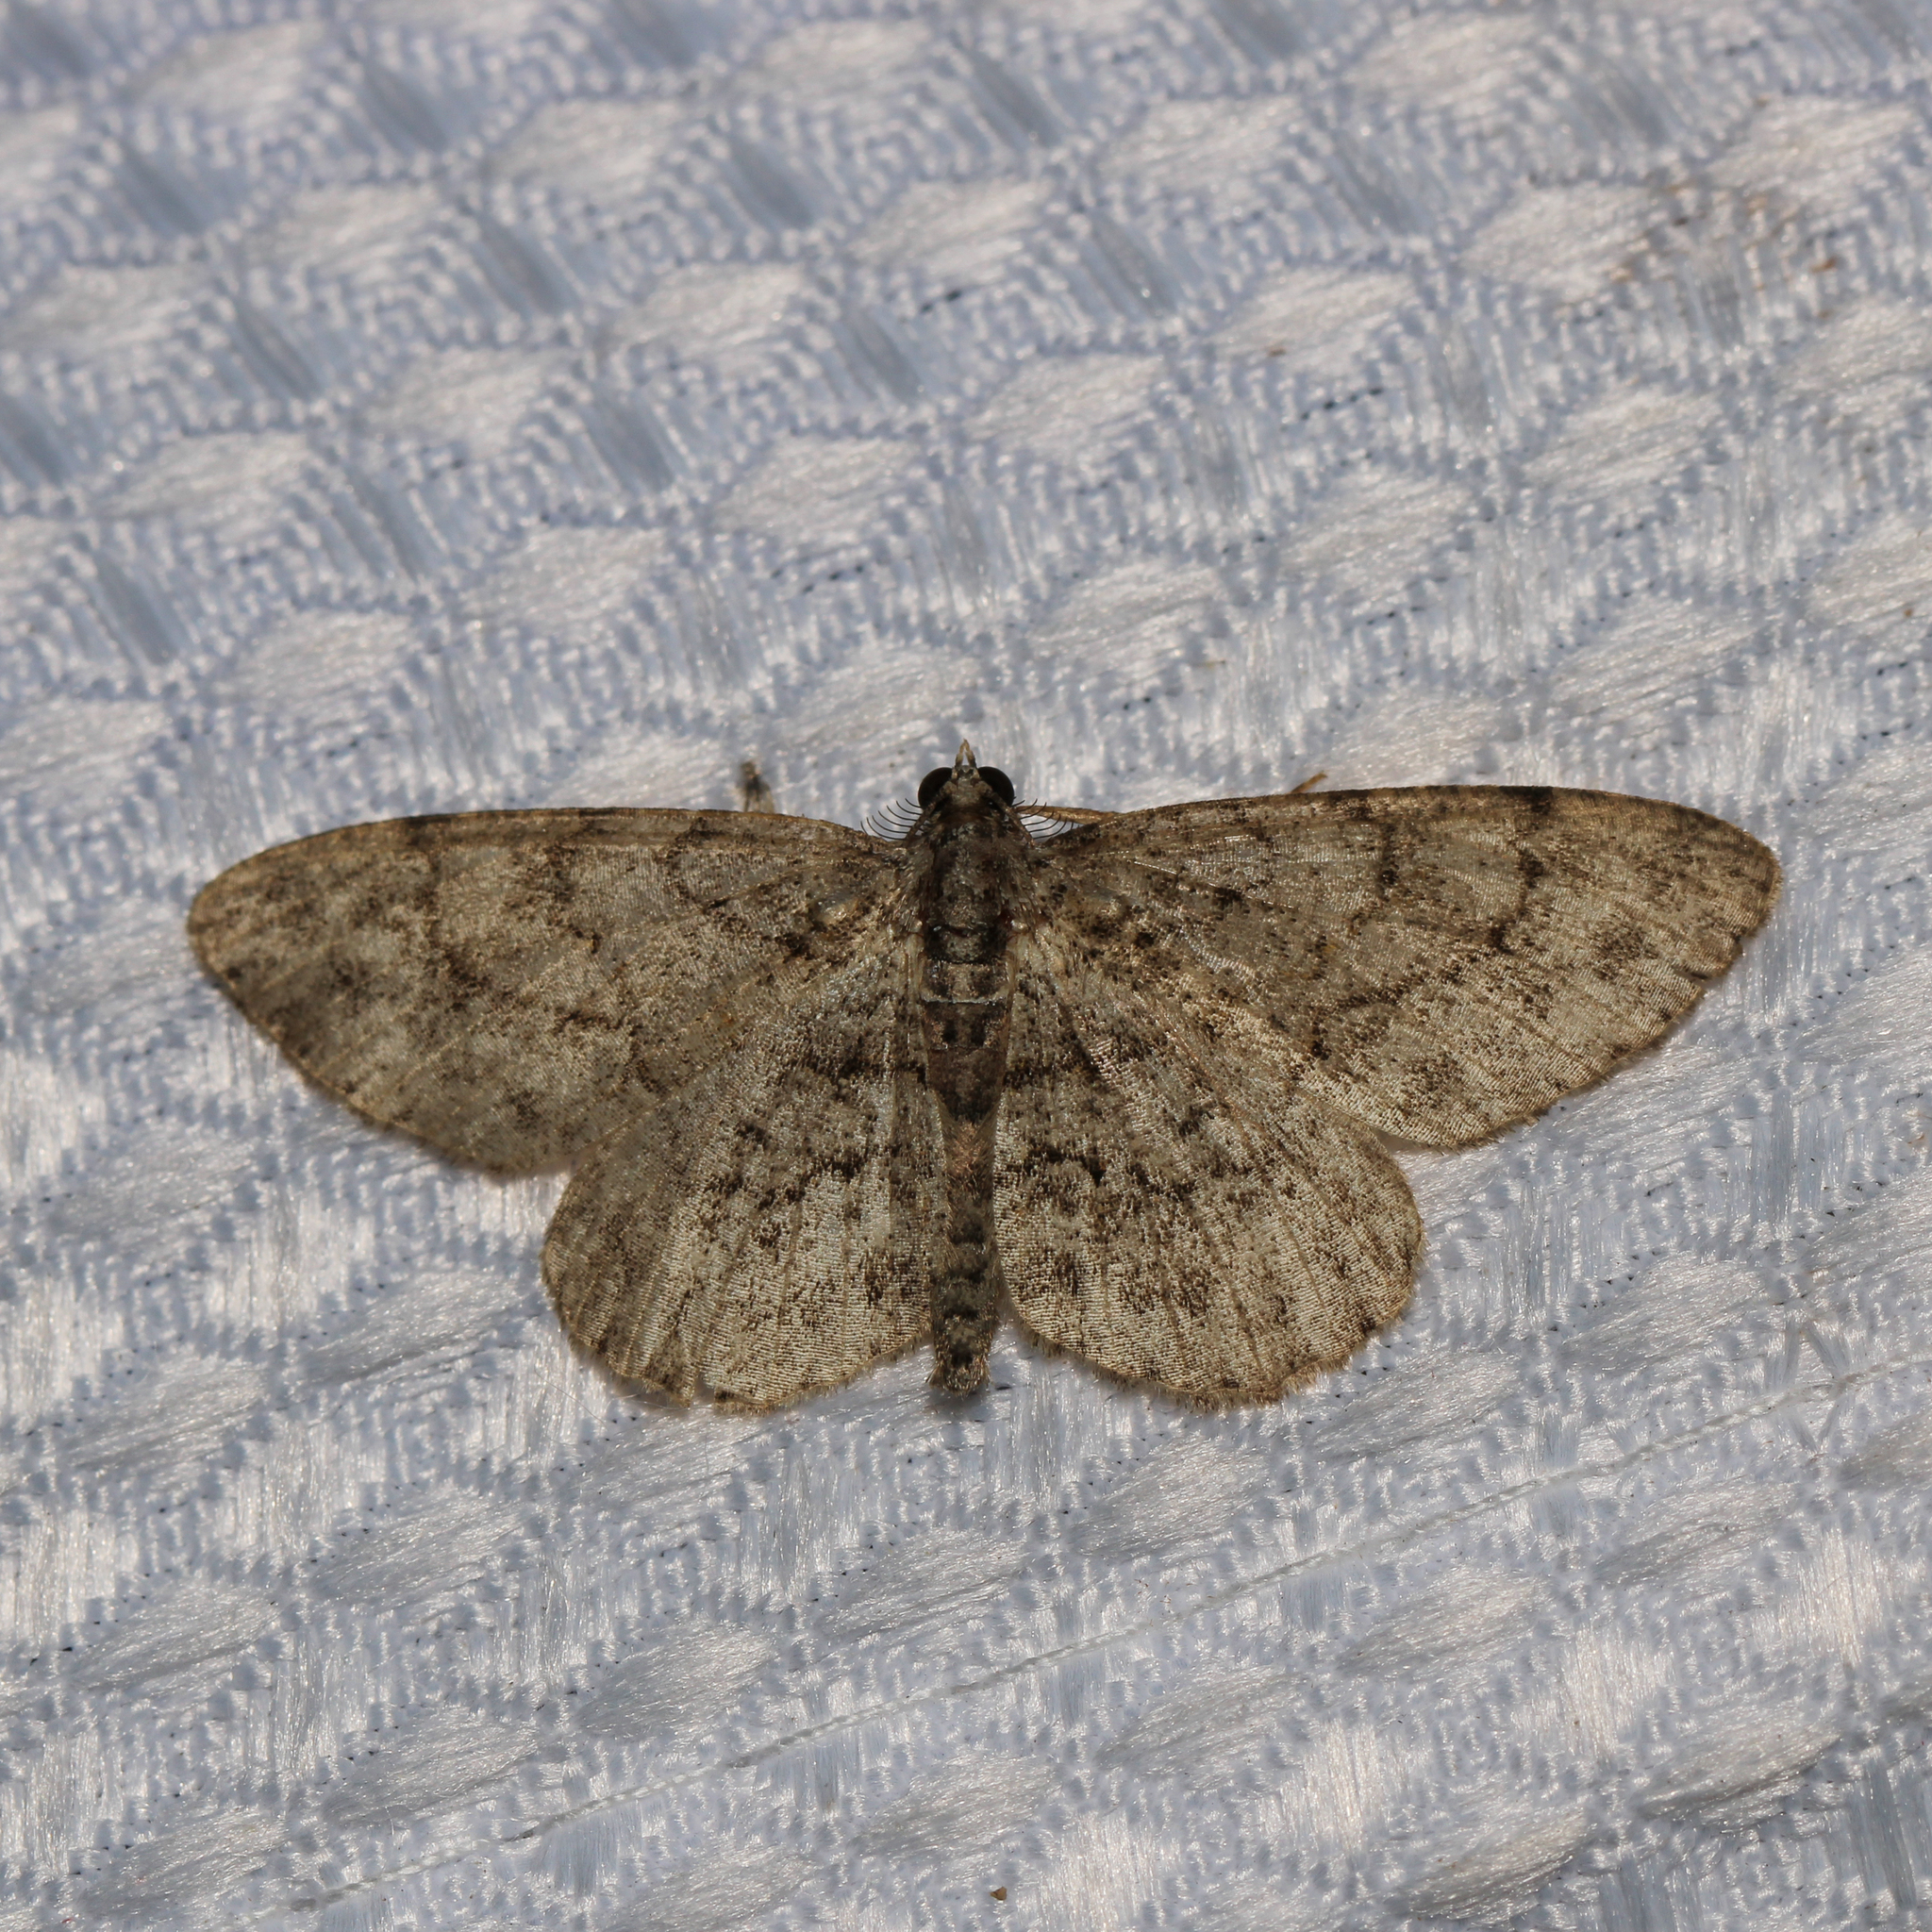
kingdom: Animalia
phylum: Arthropoda
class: Insecta
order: Lepidoptera
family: Geometridae
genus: Protoboarmia
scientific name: Protoboarmia porcelaria
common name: Porcelain gray
